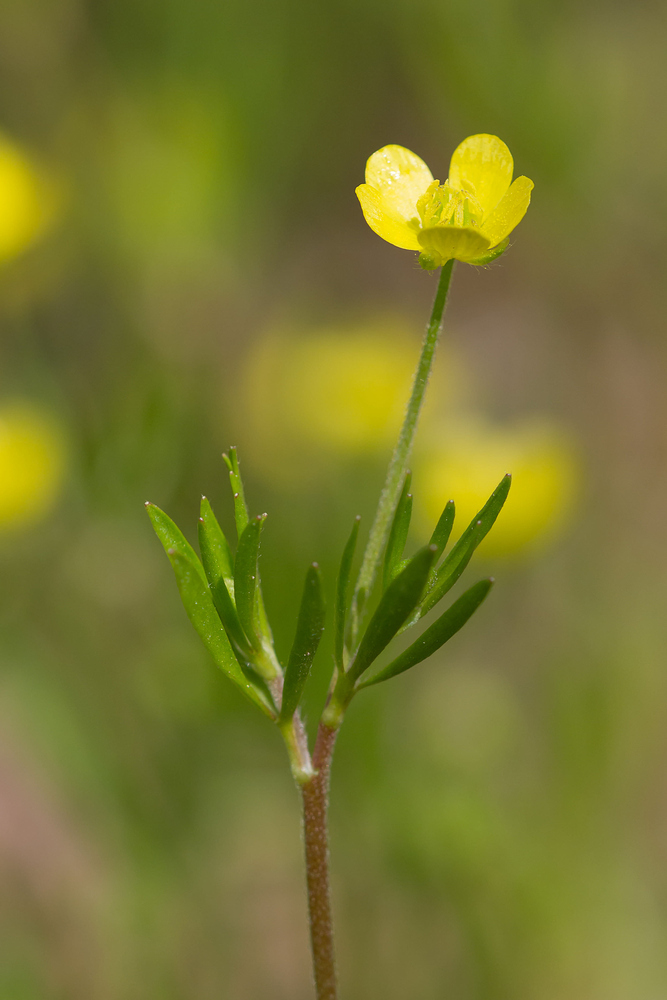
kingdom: Plantae
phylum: Tracheophyta
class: Magnoliopsida
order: Ranunculales
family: Ranunculaceae
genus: Ranunculus
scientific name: Ranunculus arvensis
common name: Corn buttercup
